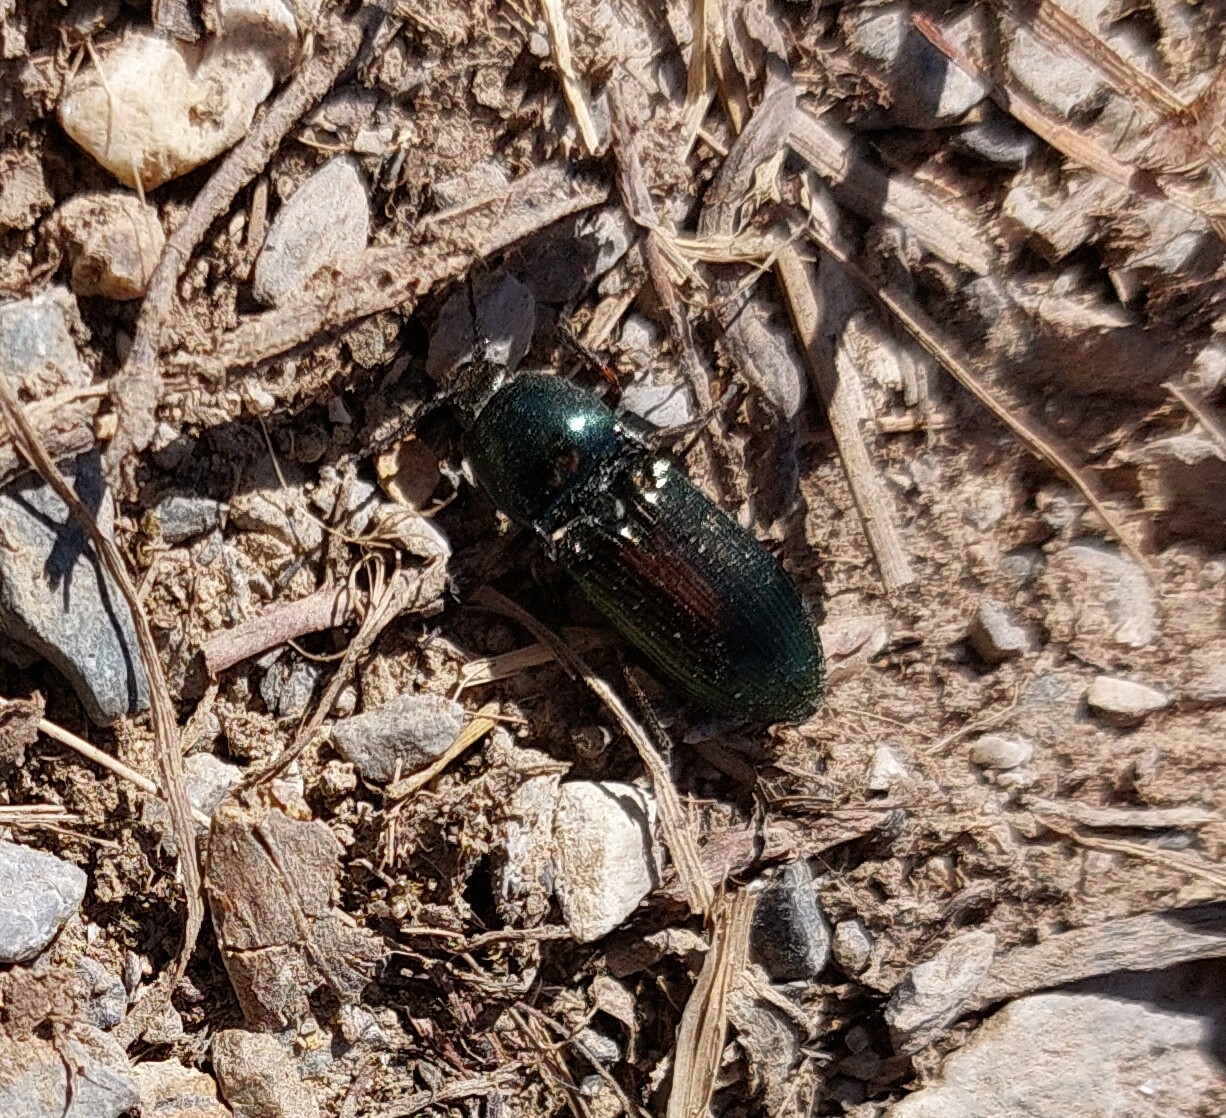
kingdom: Animalia
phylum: Arthropoda
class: Insecta
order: Coleoptera
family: Elateridae
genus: Selatosomus
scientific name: Selatosomus aeneus
